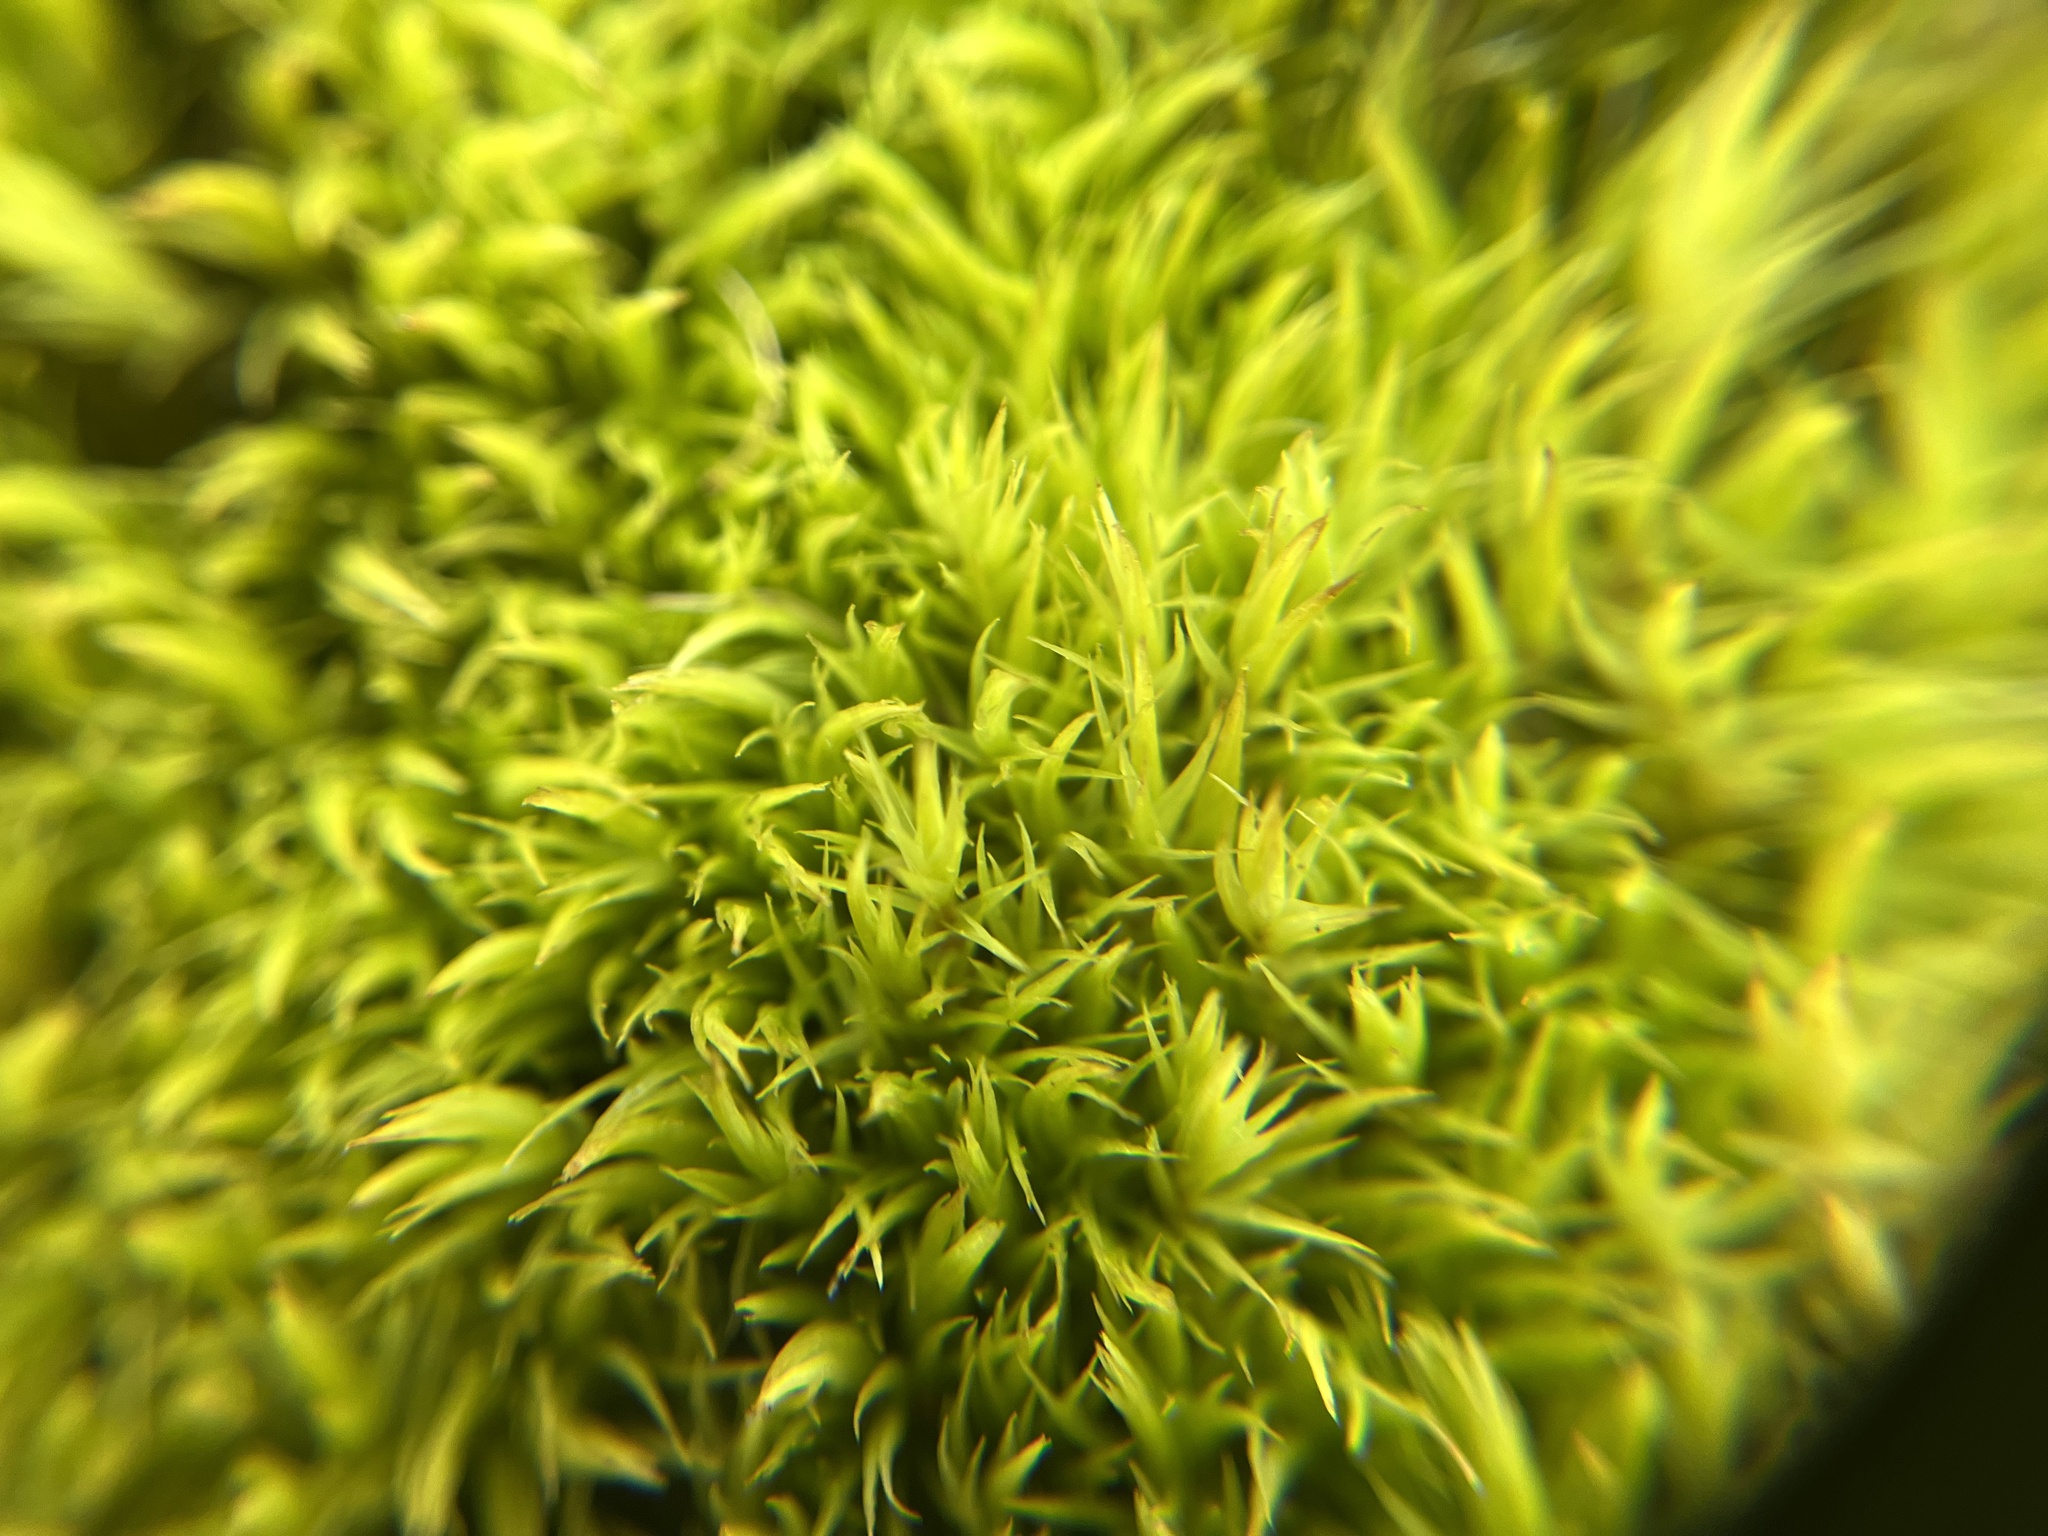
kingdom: Plantae
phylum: Bryophyta
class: Bryopsida
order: Dicranales
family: Dicranaceae
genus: Dicranum
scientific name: Dicranum scoparium
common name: Broom fork-moss
